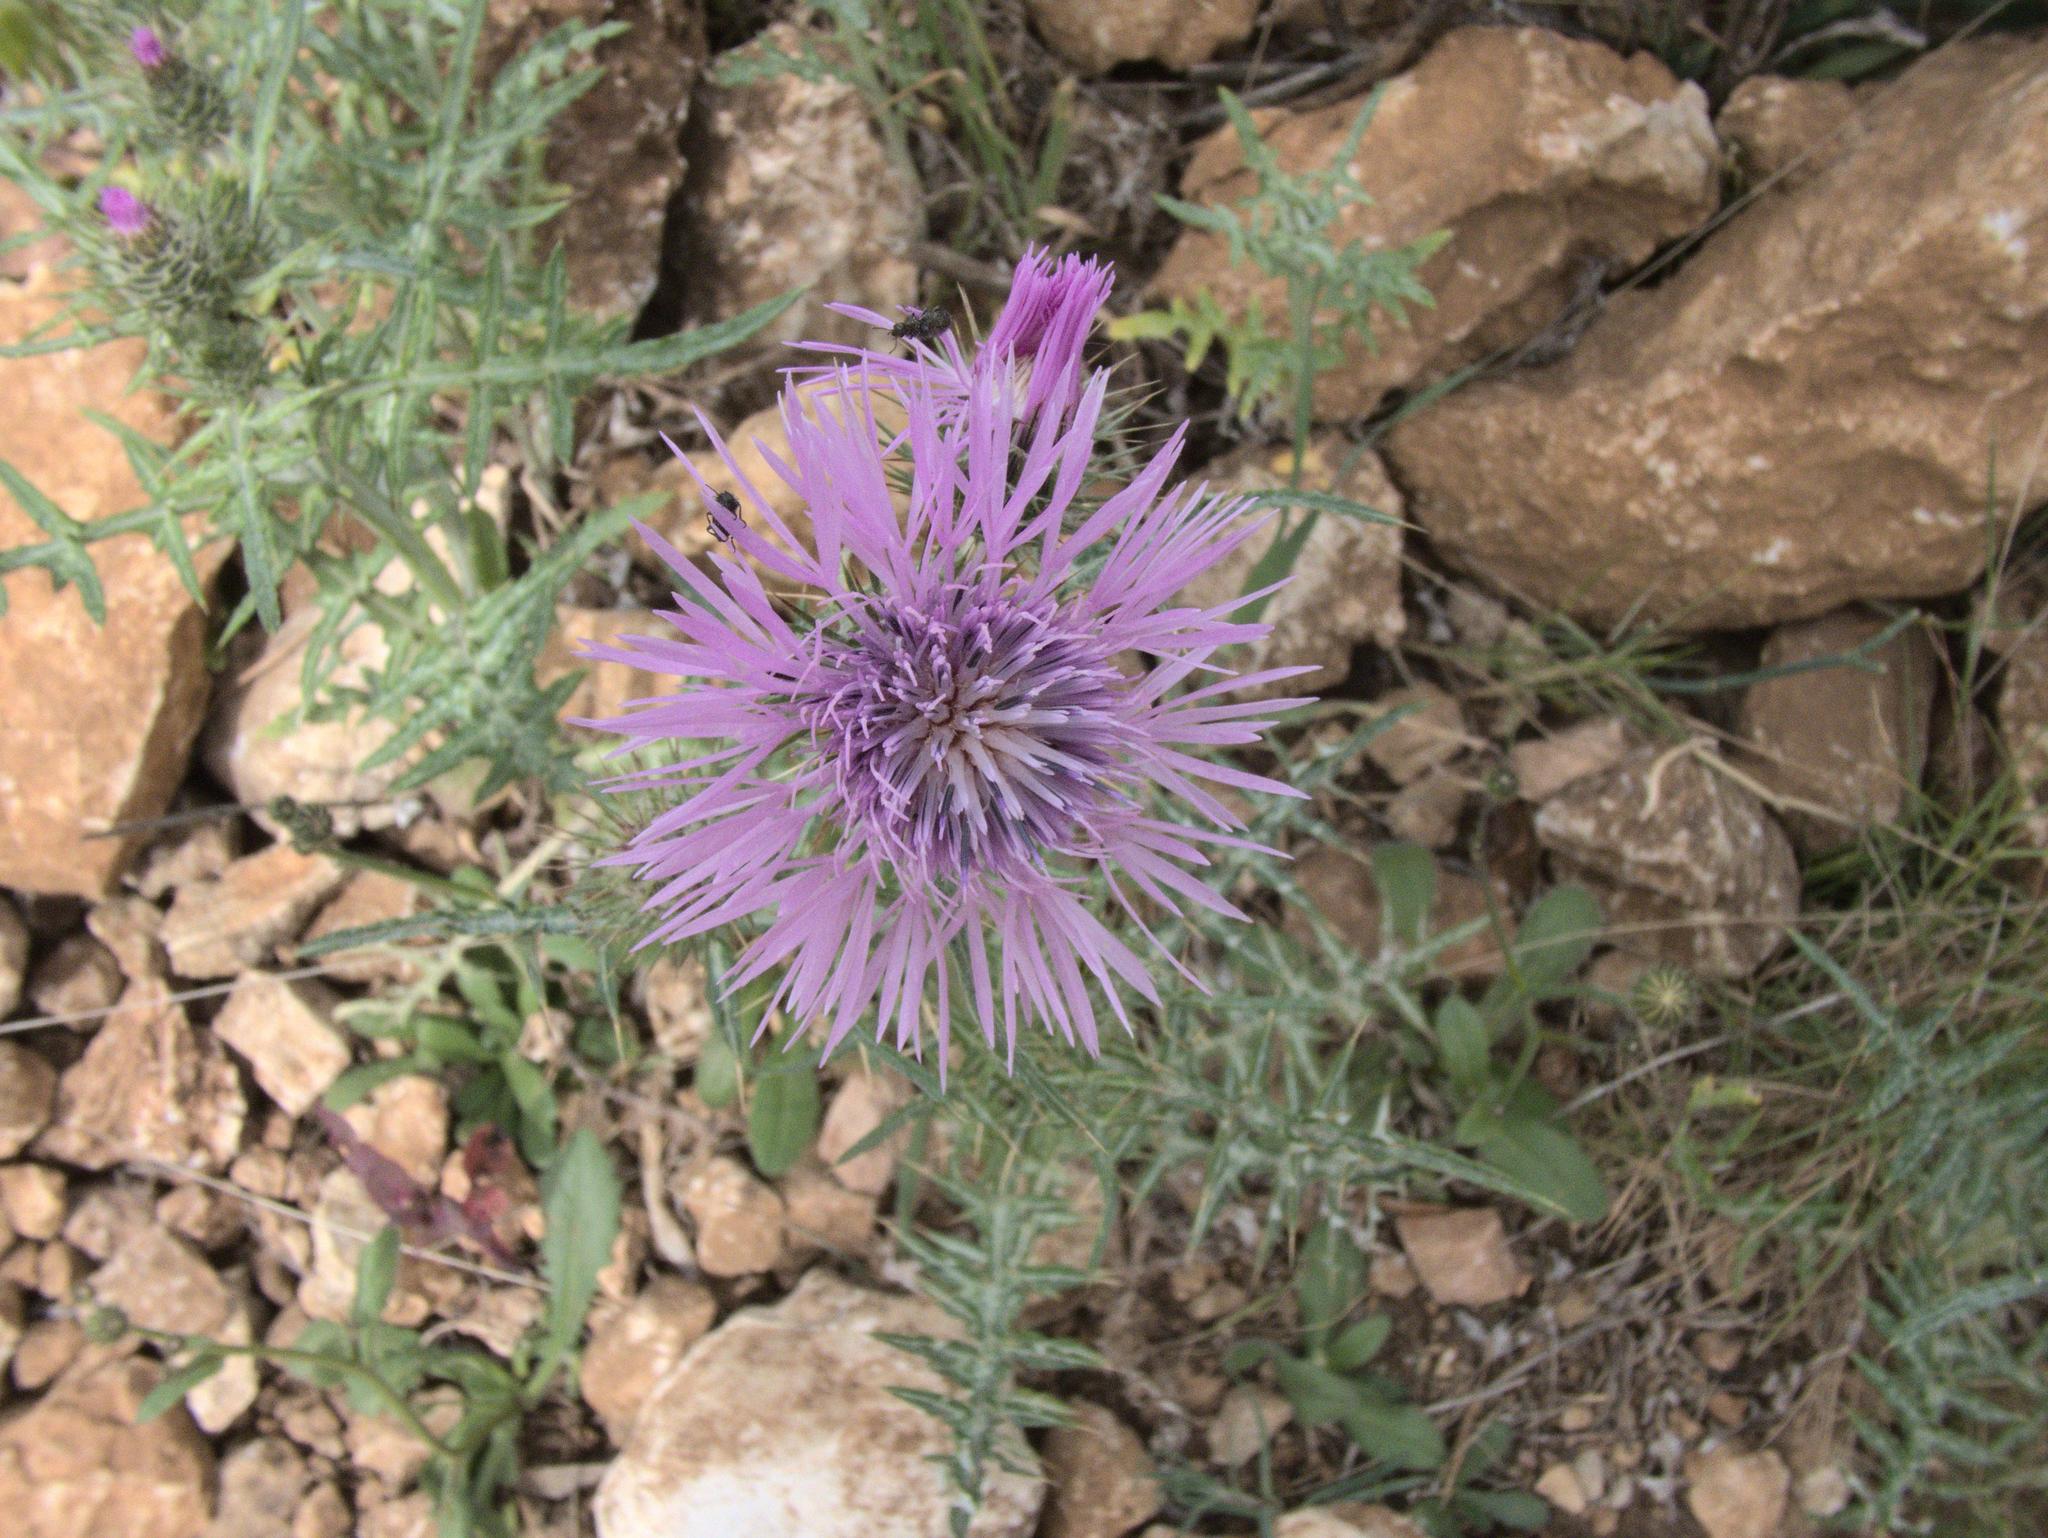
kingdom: Plantae
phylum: Tracheophyta
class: Magnoliopsida
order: Asterales
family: Asteraceae
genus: Galactites
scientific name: Galactites tomentosa
